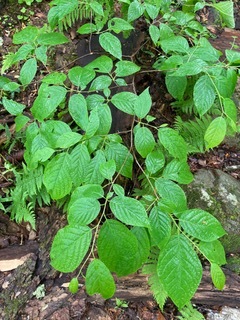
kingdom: Plantae
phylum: Tracheophyta
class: Magnoliopsida
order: Cornales
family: Cornaceae
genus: Cornus
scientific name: Cornus alternifolia
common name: Pagoda dogwood
